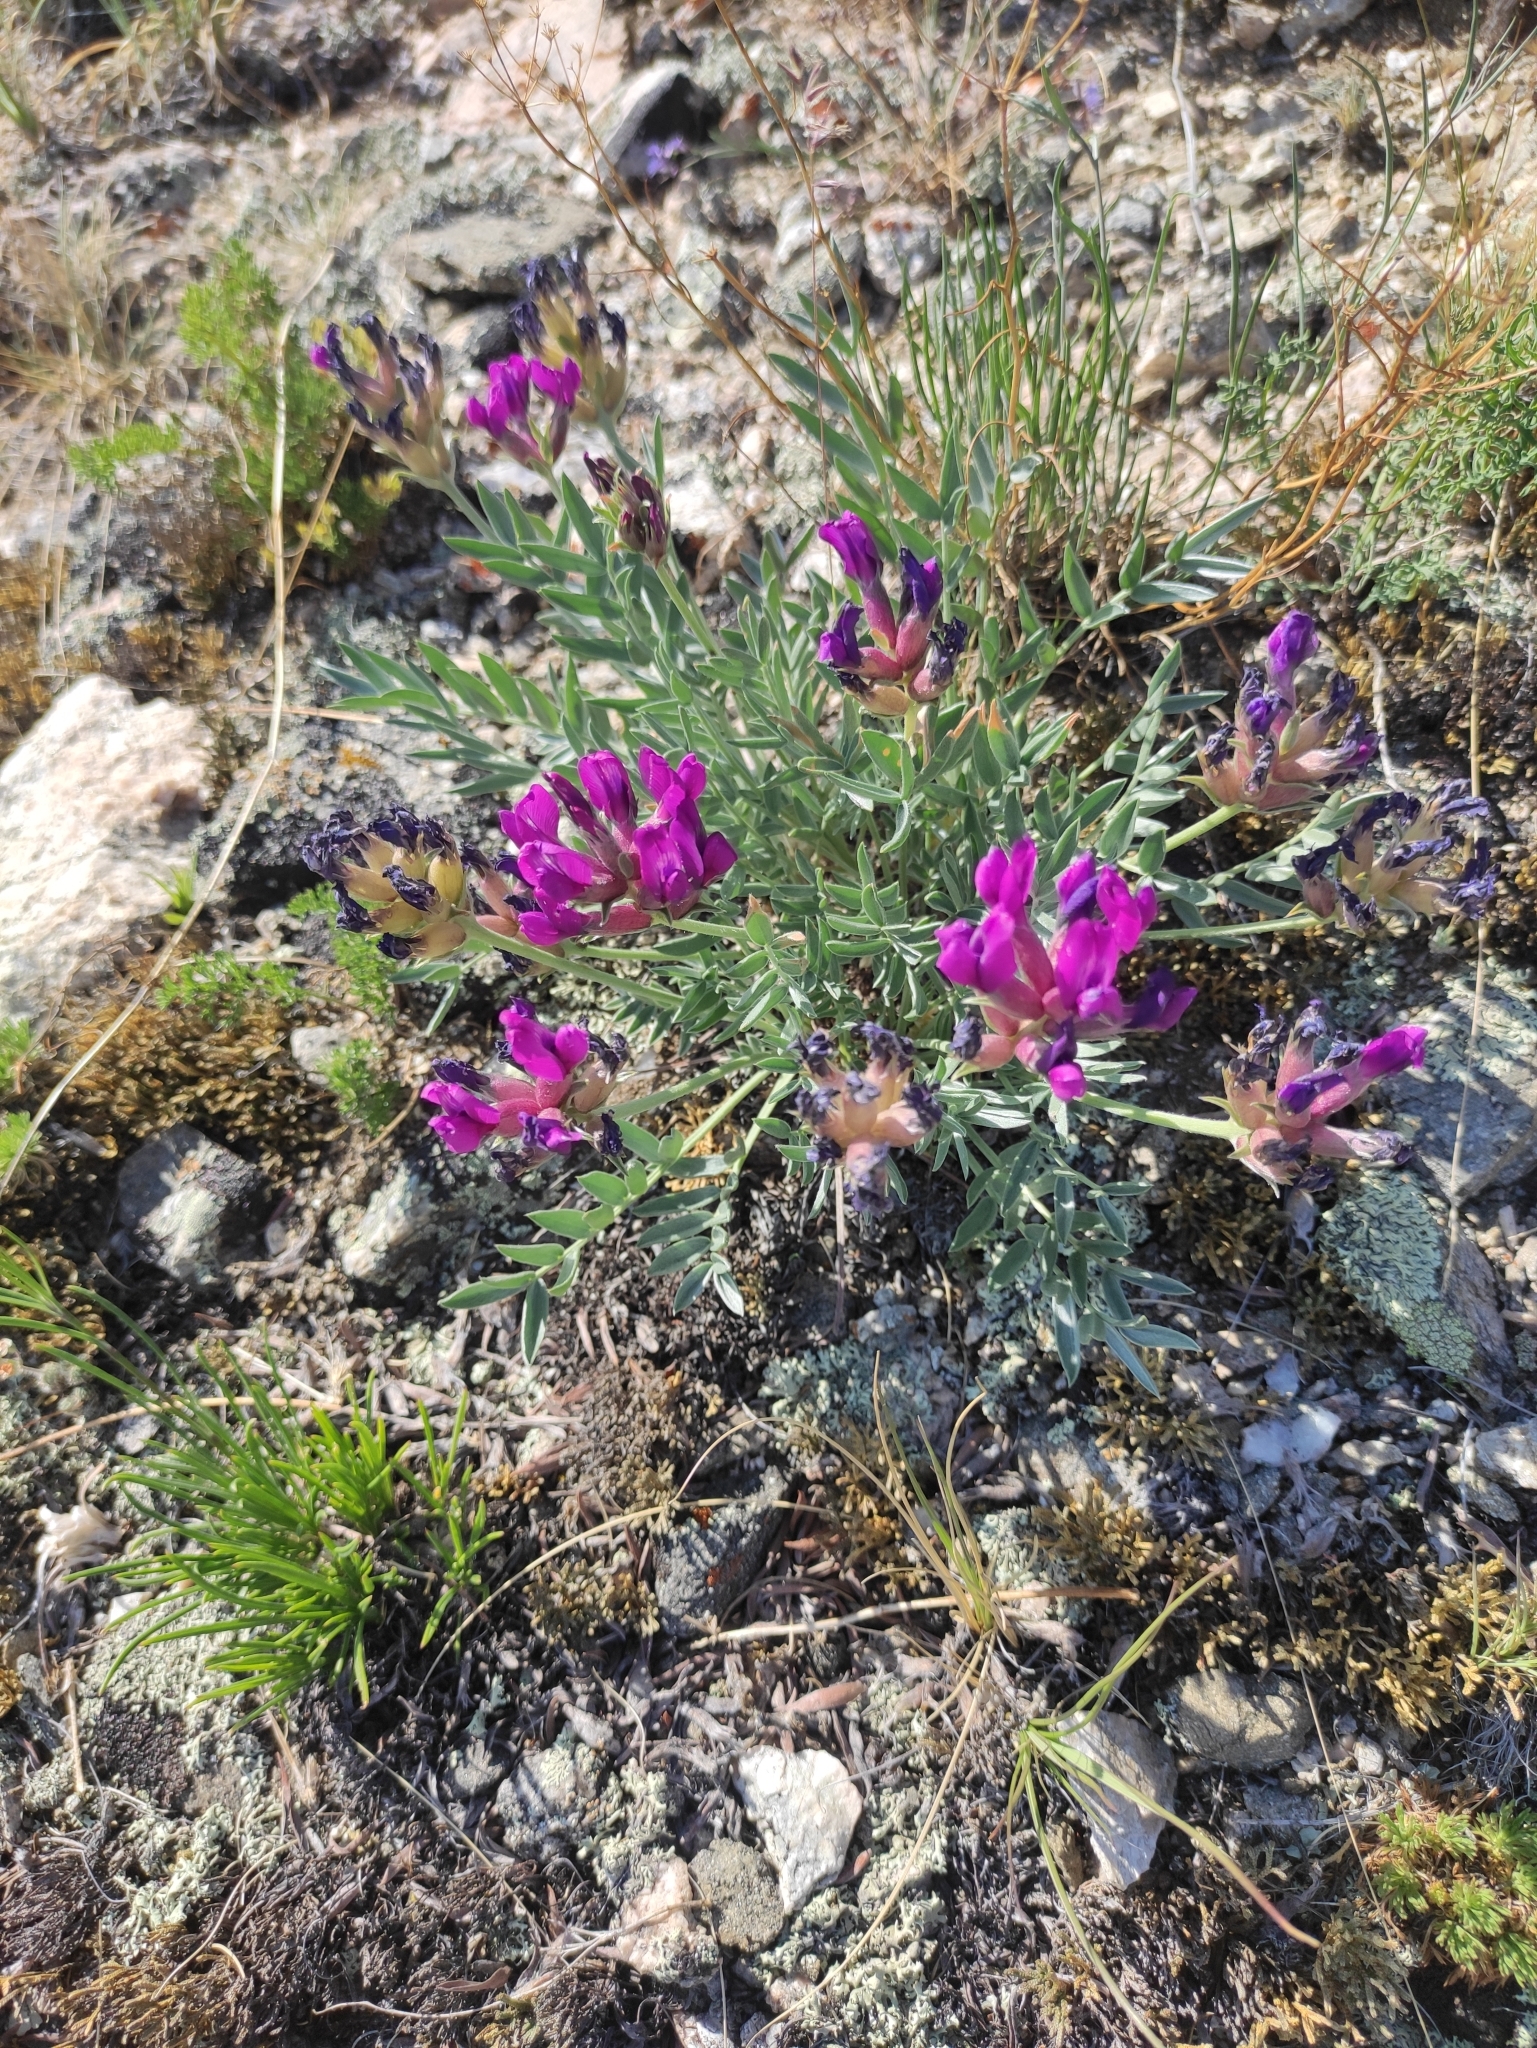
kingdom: Plantae
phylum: Tracheophyta
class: Magnoliopsida
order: Fabales
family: Fabaceae
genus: Oxytropis
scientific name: Oxytropis popoviana
